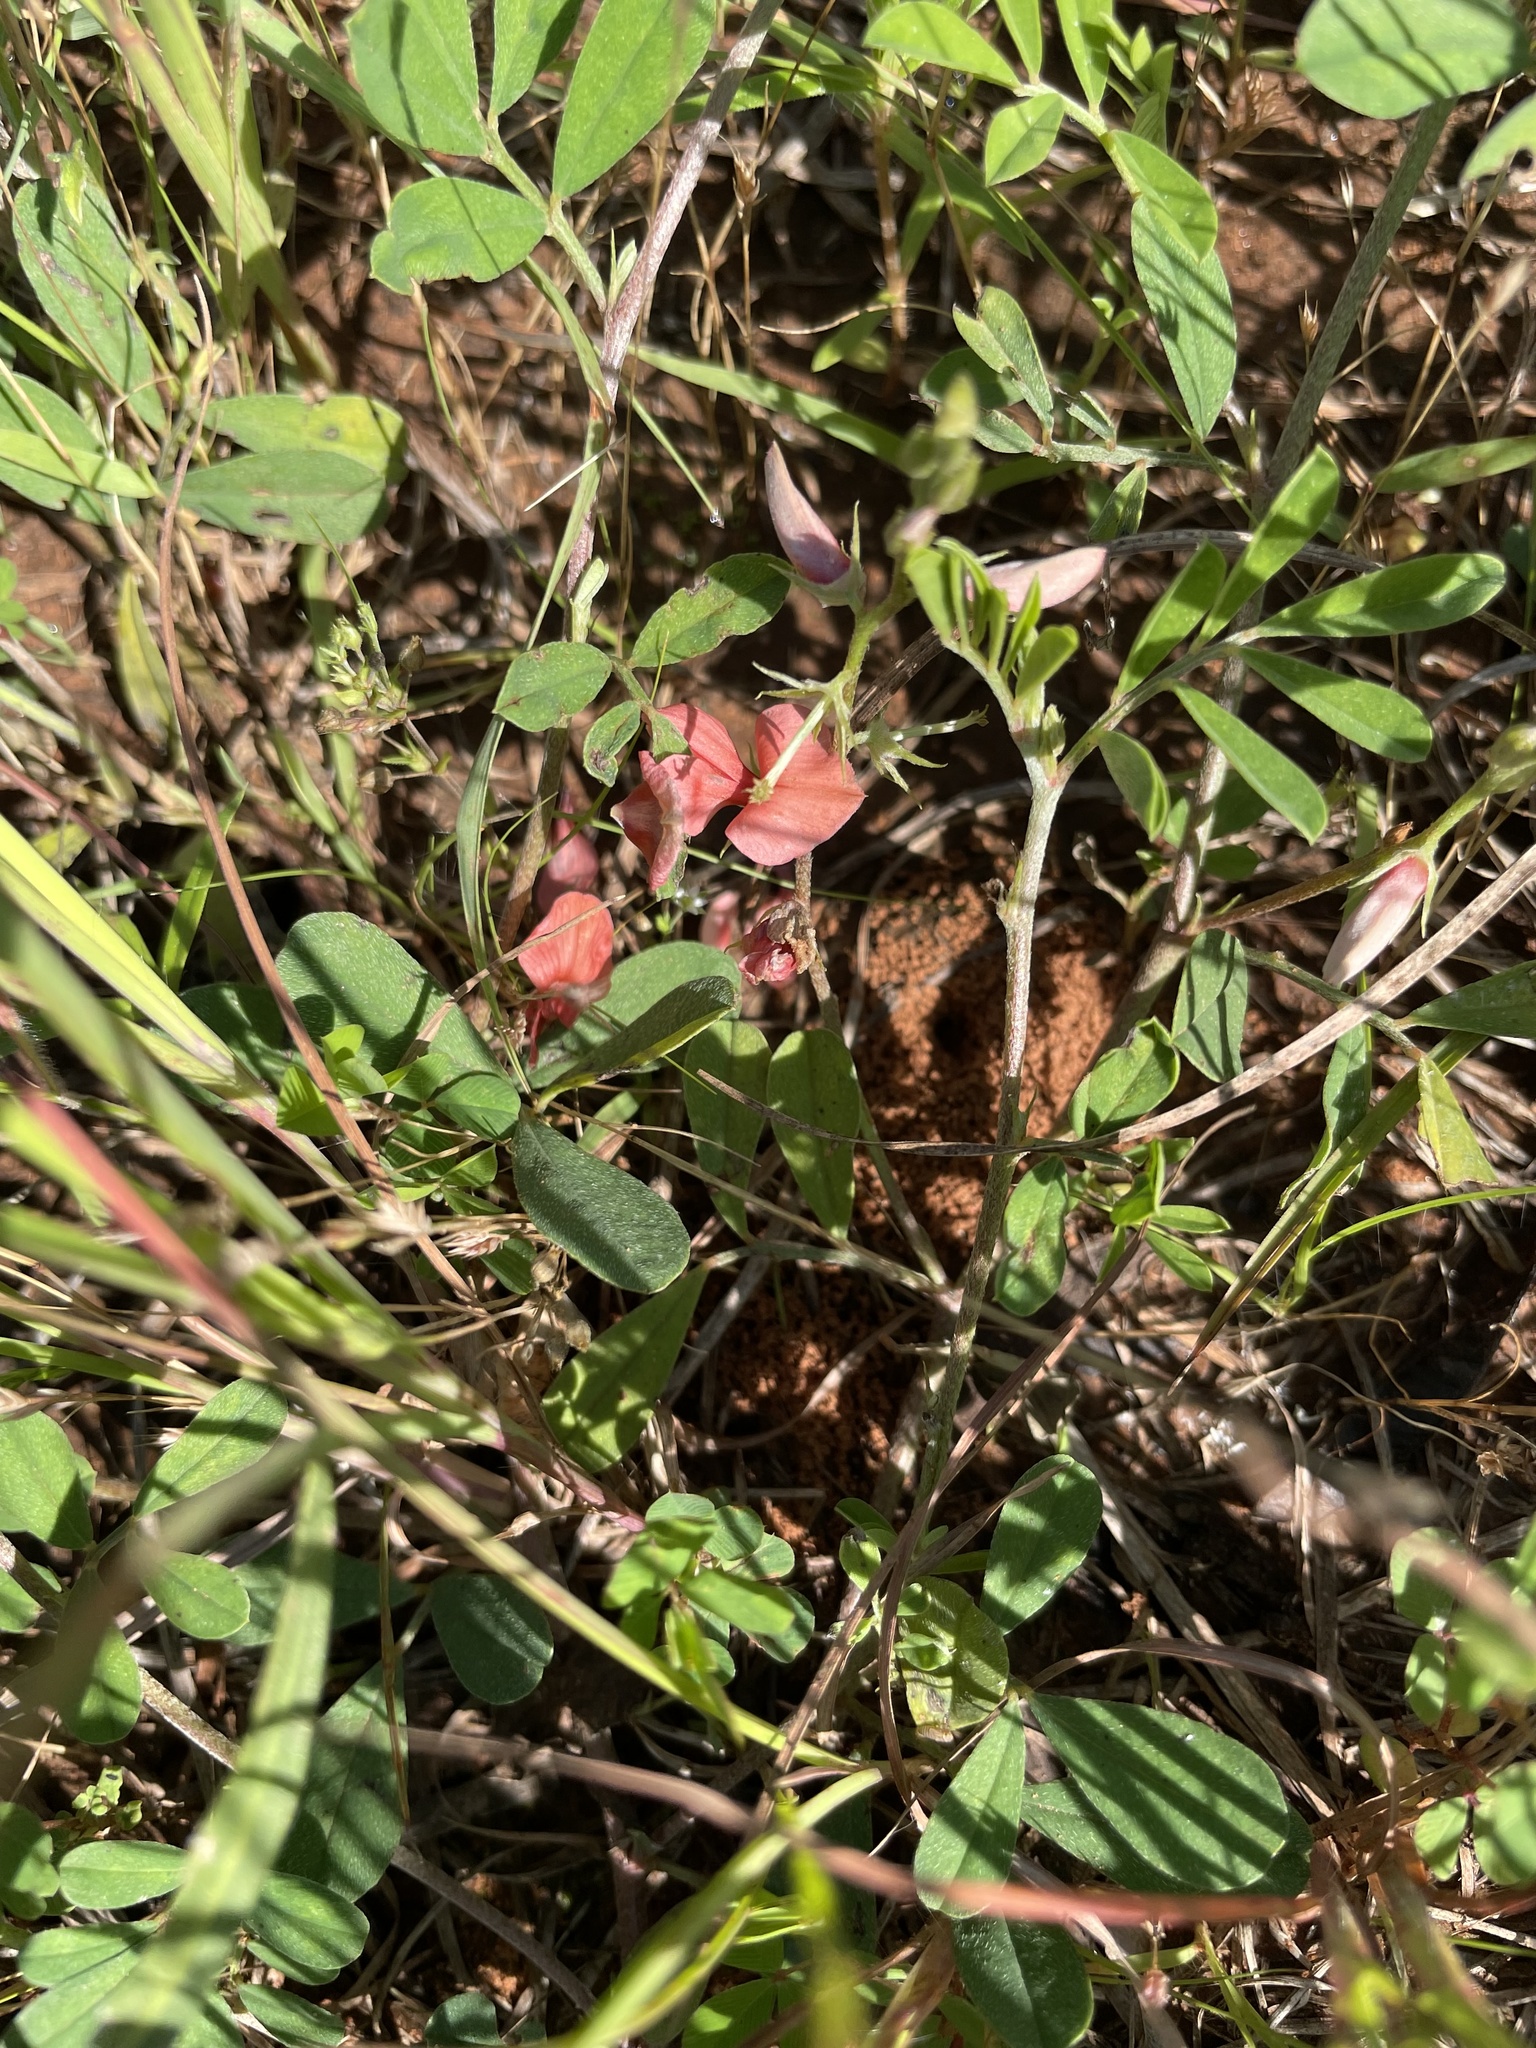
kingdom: Plantae
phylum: Tracheophyta
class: Magnoliopsida
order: Fabales
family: Fabaceae
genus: Indigofera
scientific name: Indigofera miniata
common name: Coast indigo
